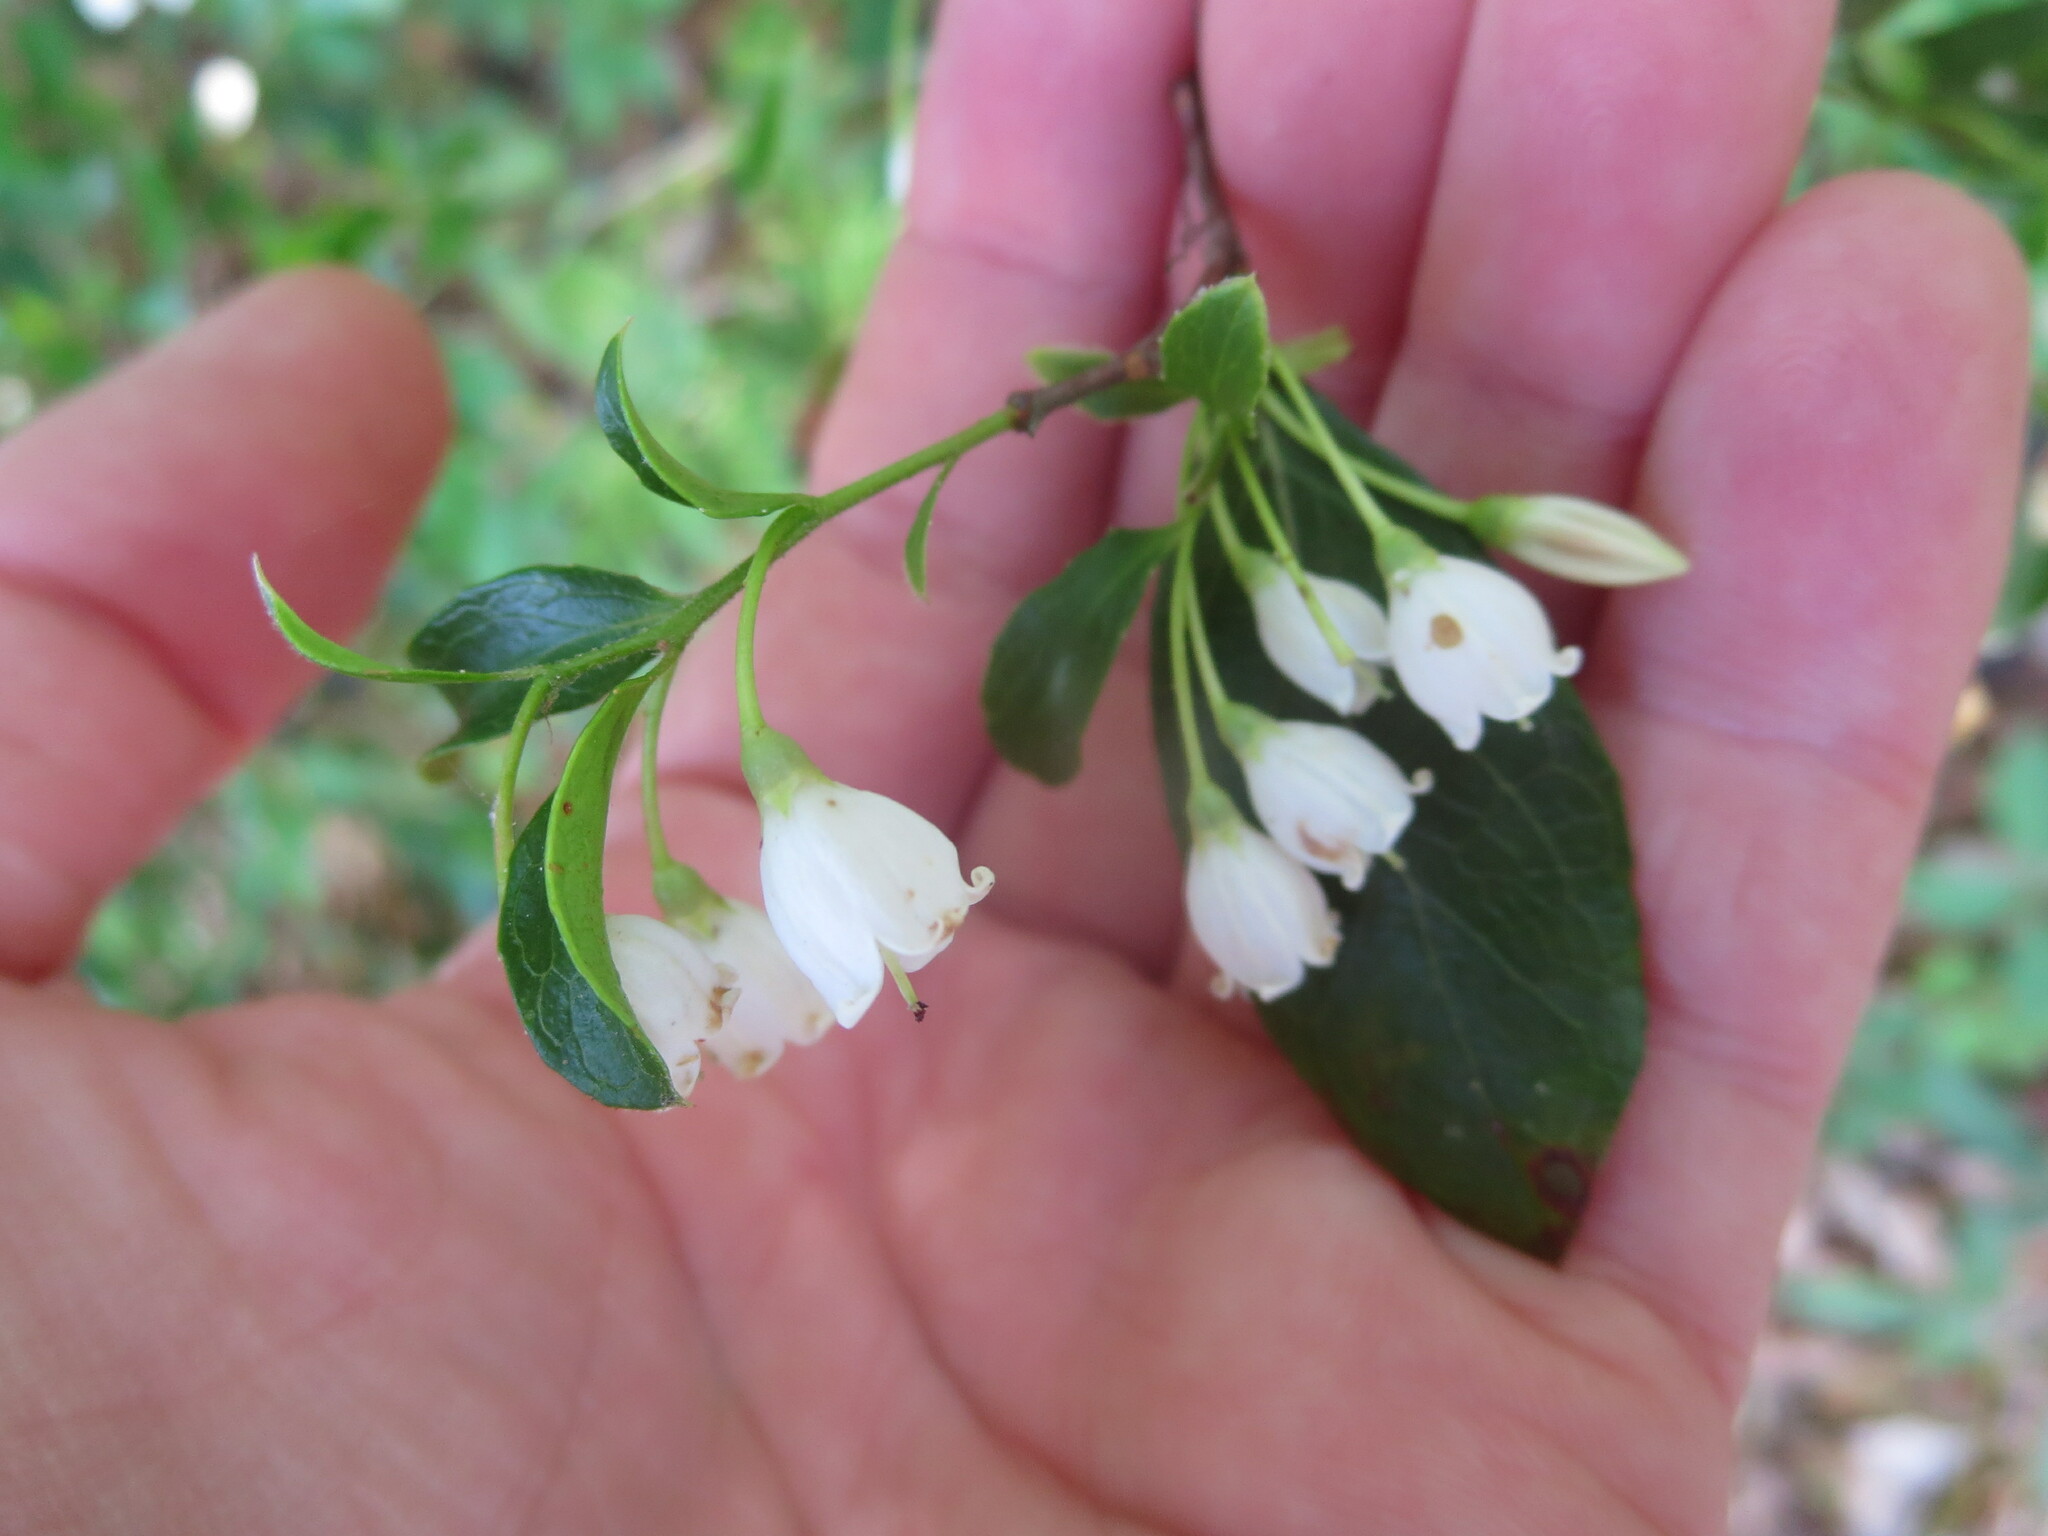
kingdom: Plantae
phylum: Tracheophyta
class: Magnoliopsida
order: Ericales
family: Ericaceae
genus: Vaccinium
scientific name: Vaccinium arboreum
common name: Farkleberry
